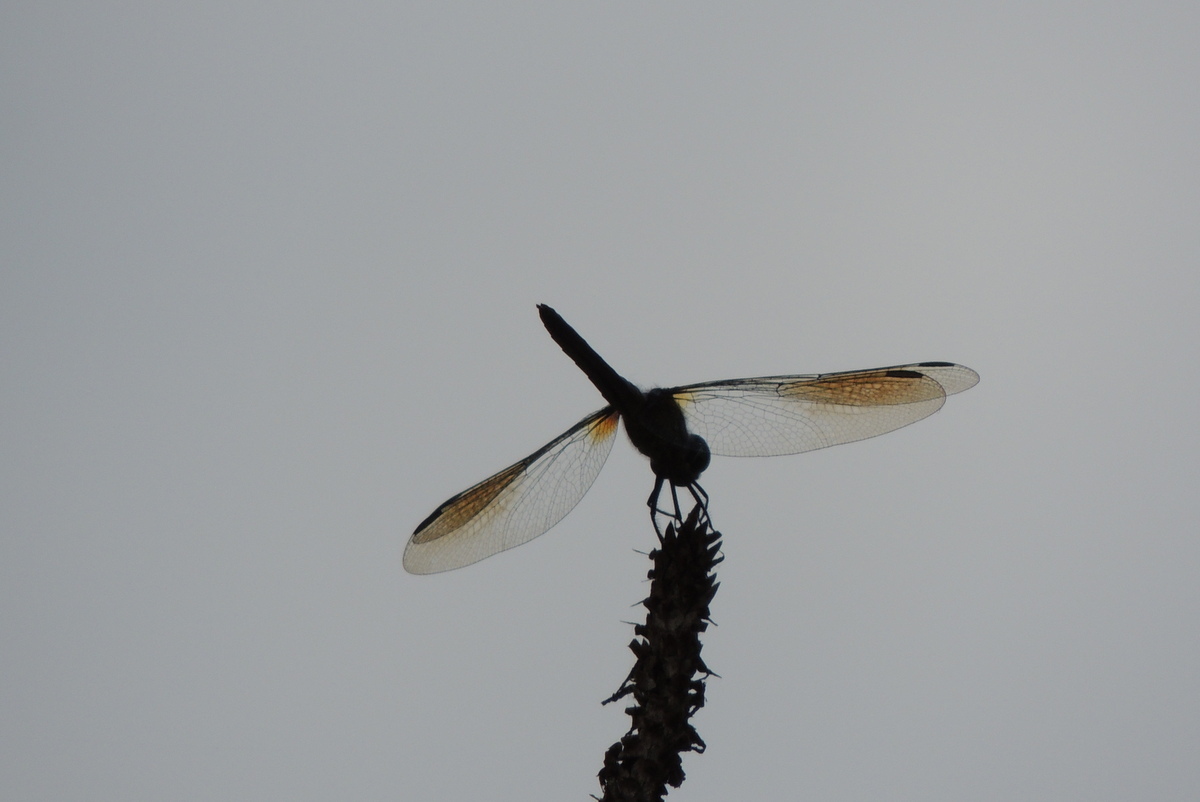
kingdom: Animalia
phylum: Arthropoda
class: Insecta
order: Odonata
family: Libellulidae
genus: Pachydiplax
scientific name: Pachydiplax longipennis
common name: Blue dasher
